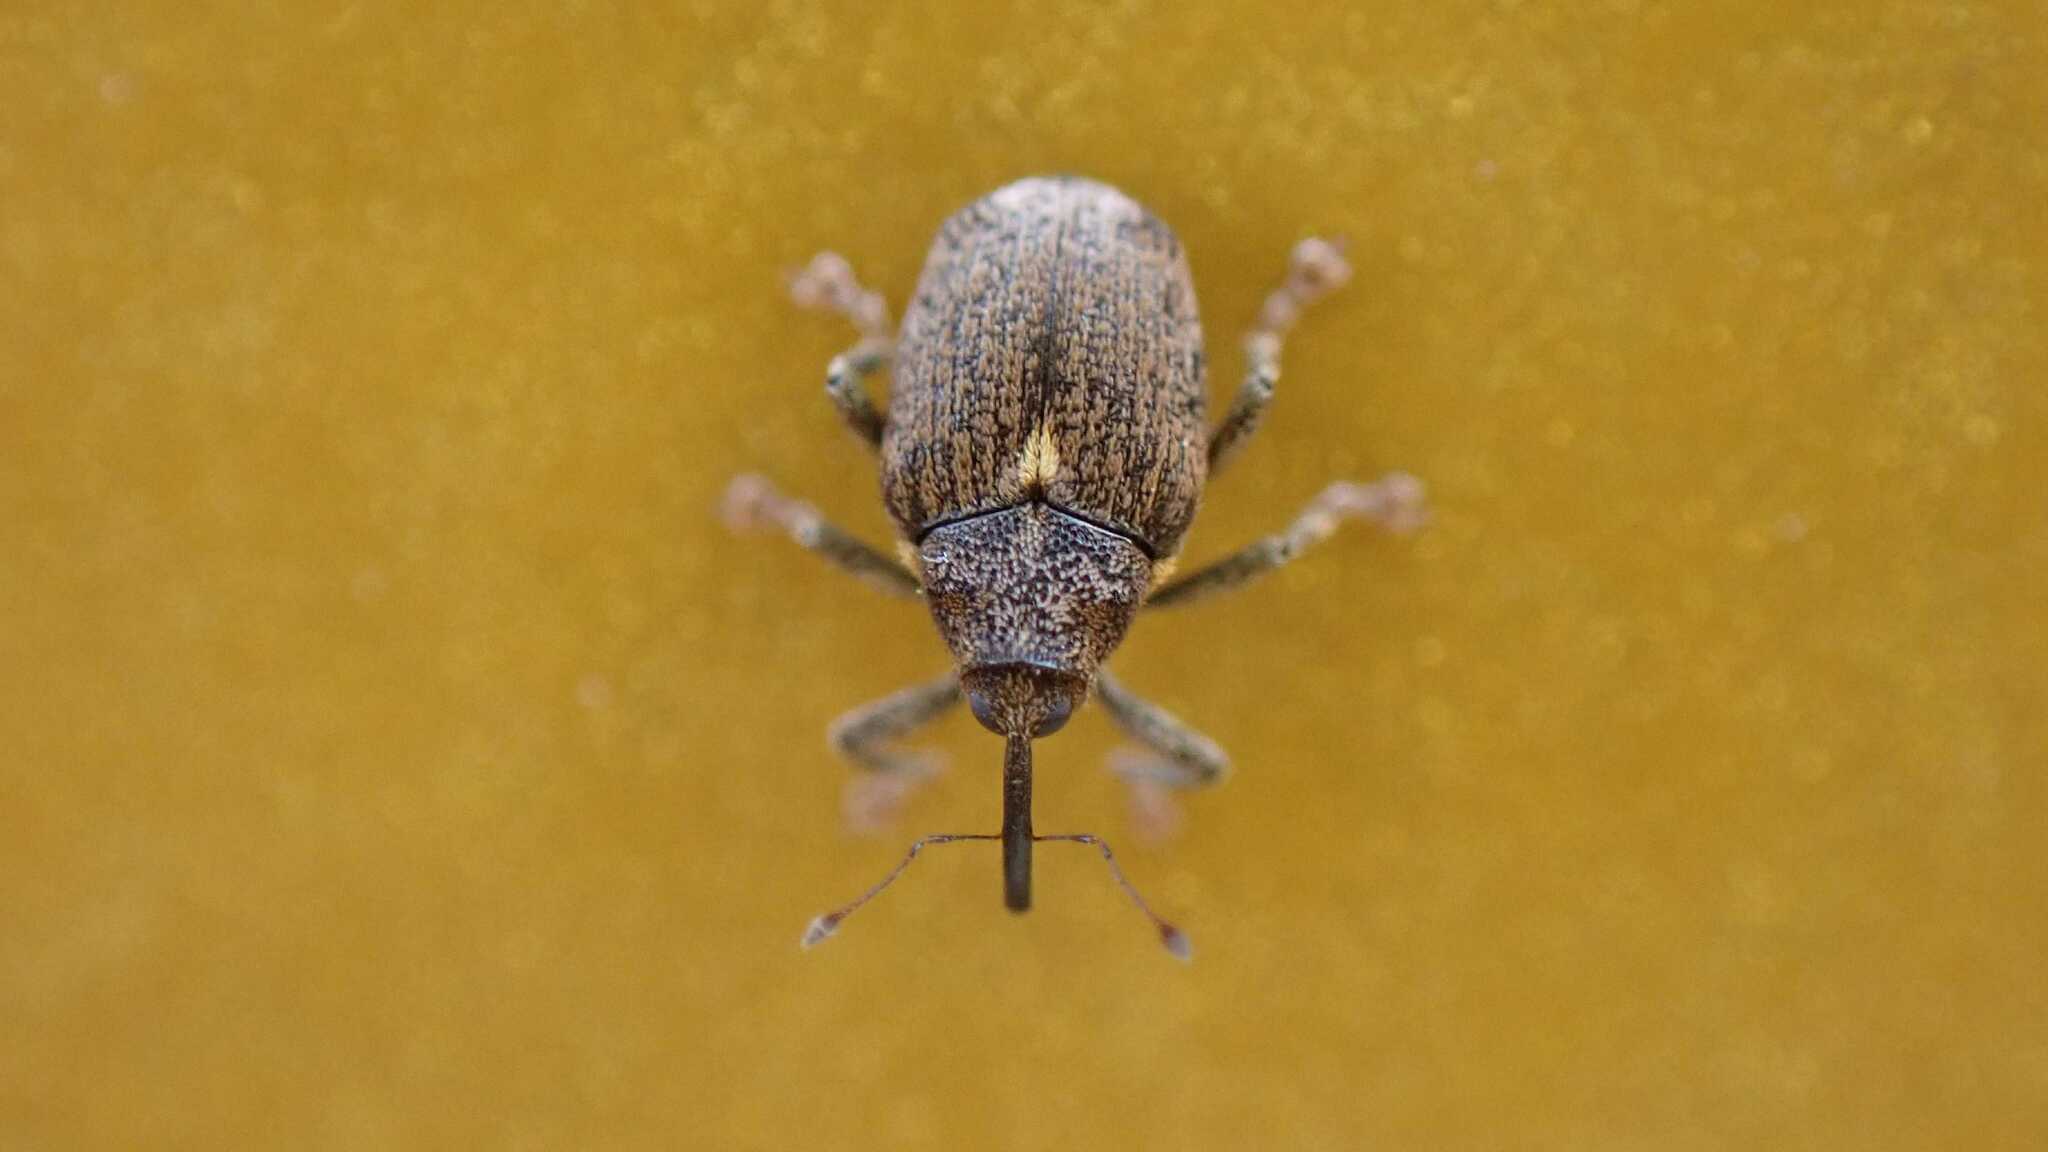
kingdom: Animalia
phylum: Arthropoda
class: Insecta
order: Coleoptera
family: Curculionidae
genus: Ceutorhynchus
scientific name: Ceutorhynchus pallidactylus
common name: Cabbage stem weavil
